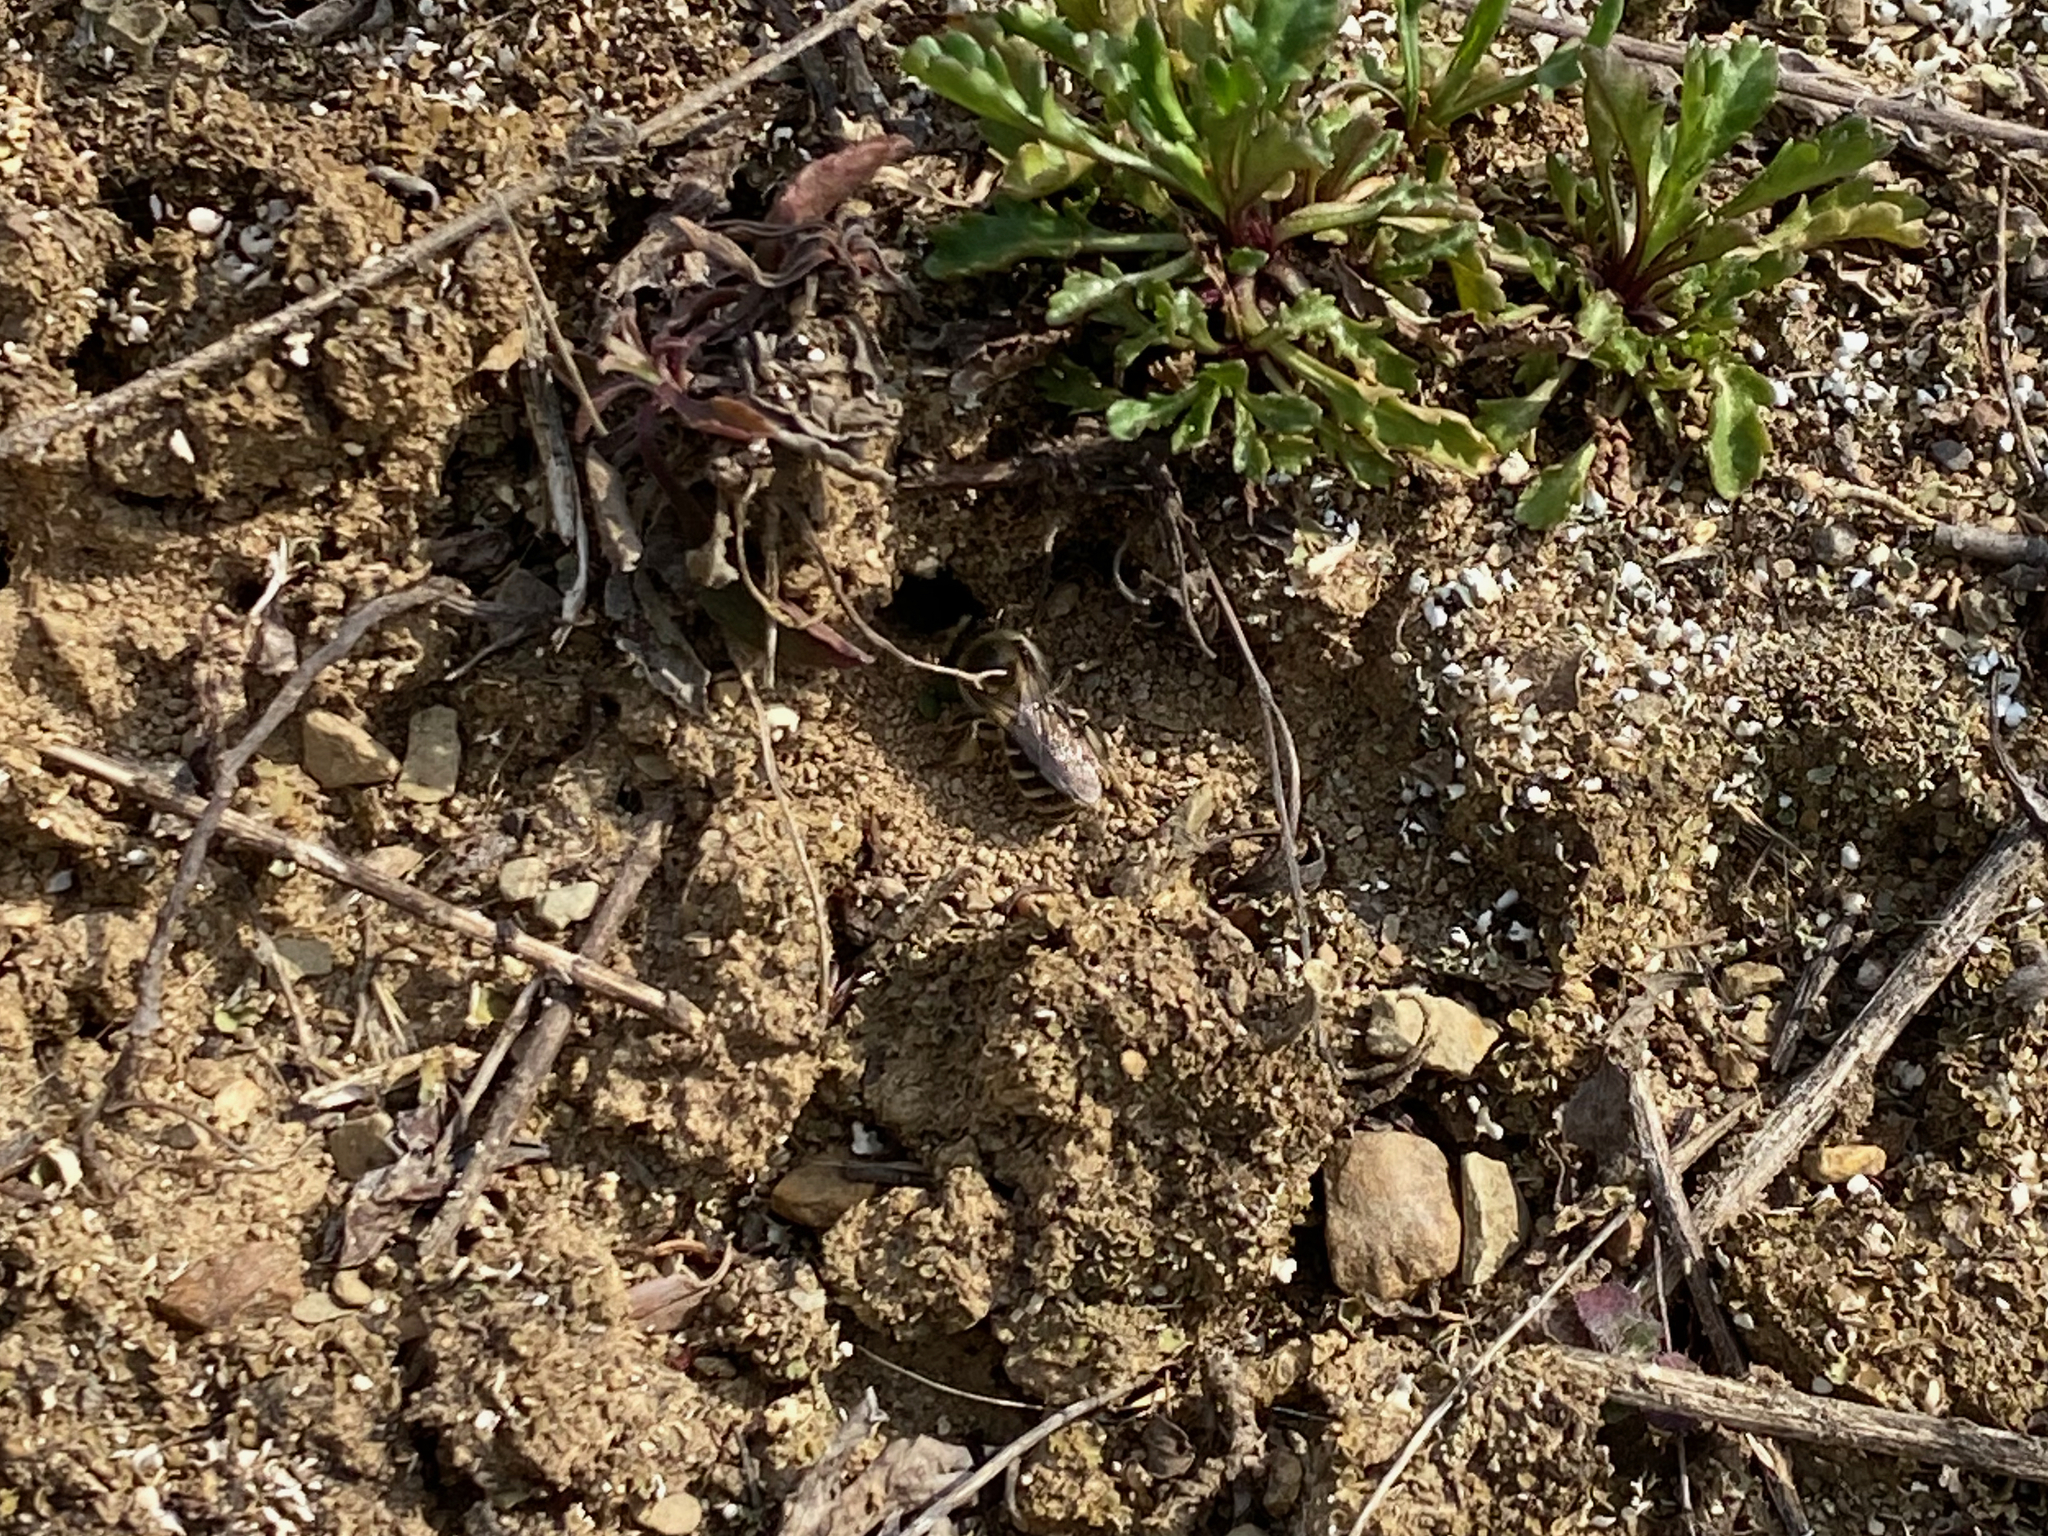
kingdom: Animalia
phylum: Arthropoda
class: Insecta
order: Hymenoptera
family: Colletidae
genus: Colletes
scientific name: Colletes inaequalis
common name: Unequal cellophane bee
